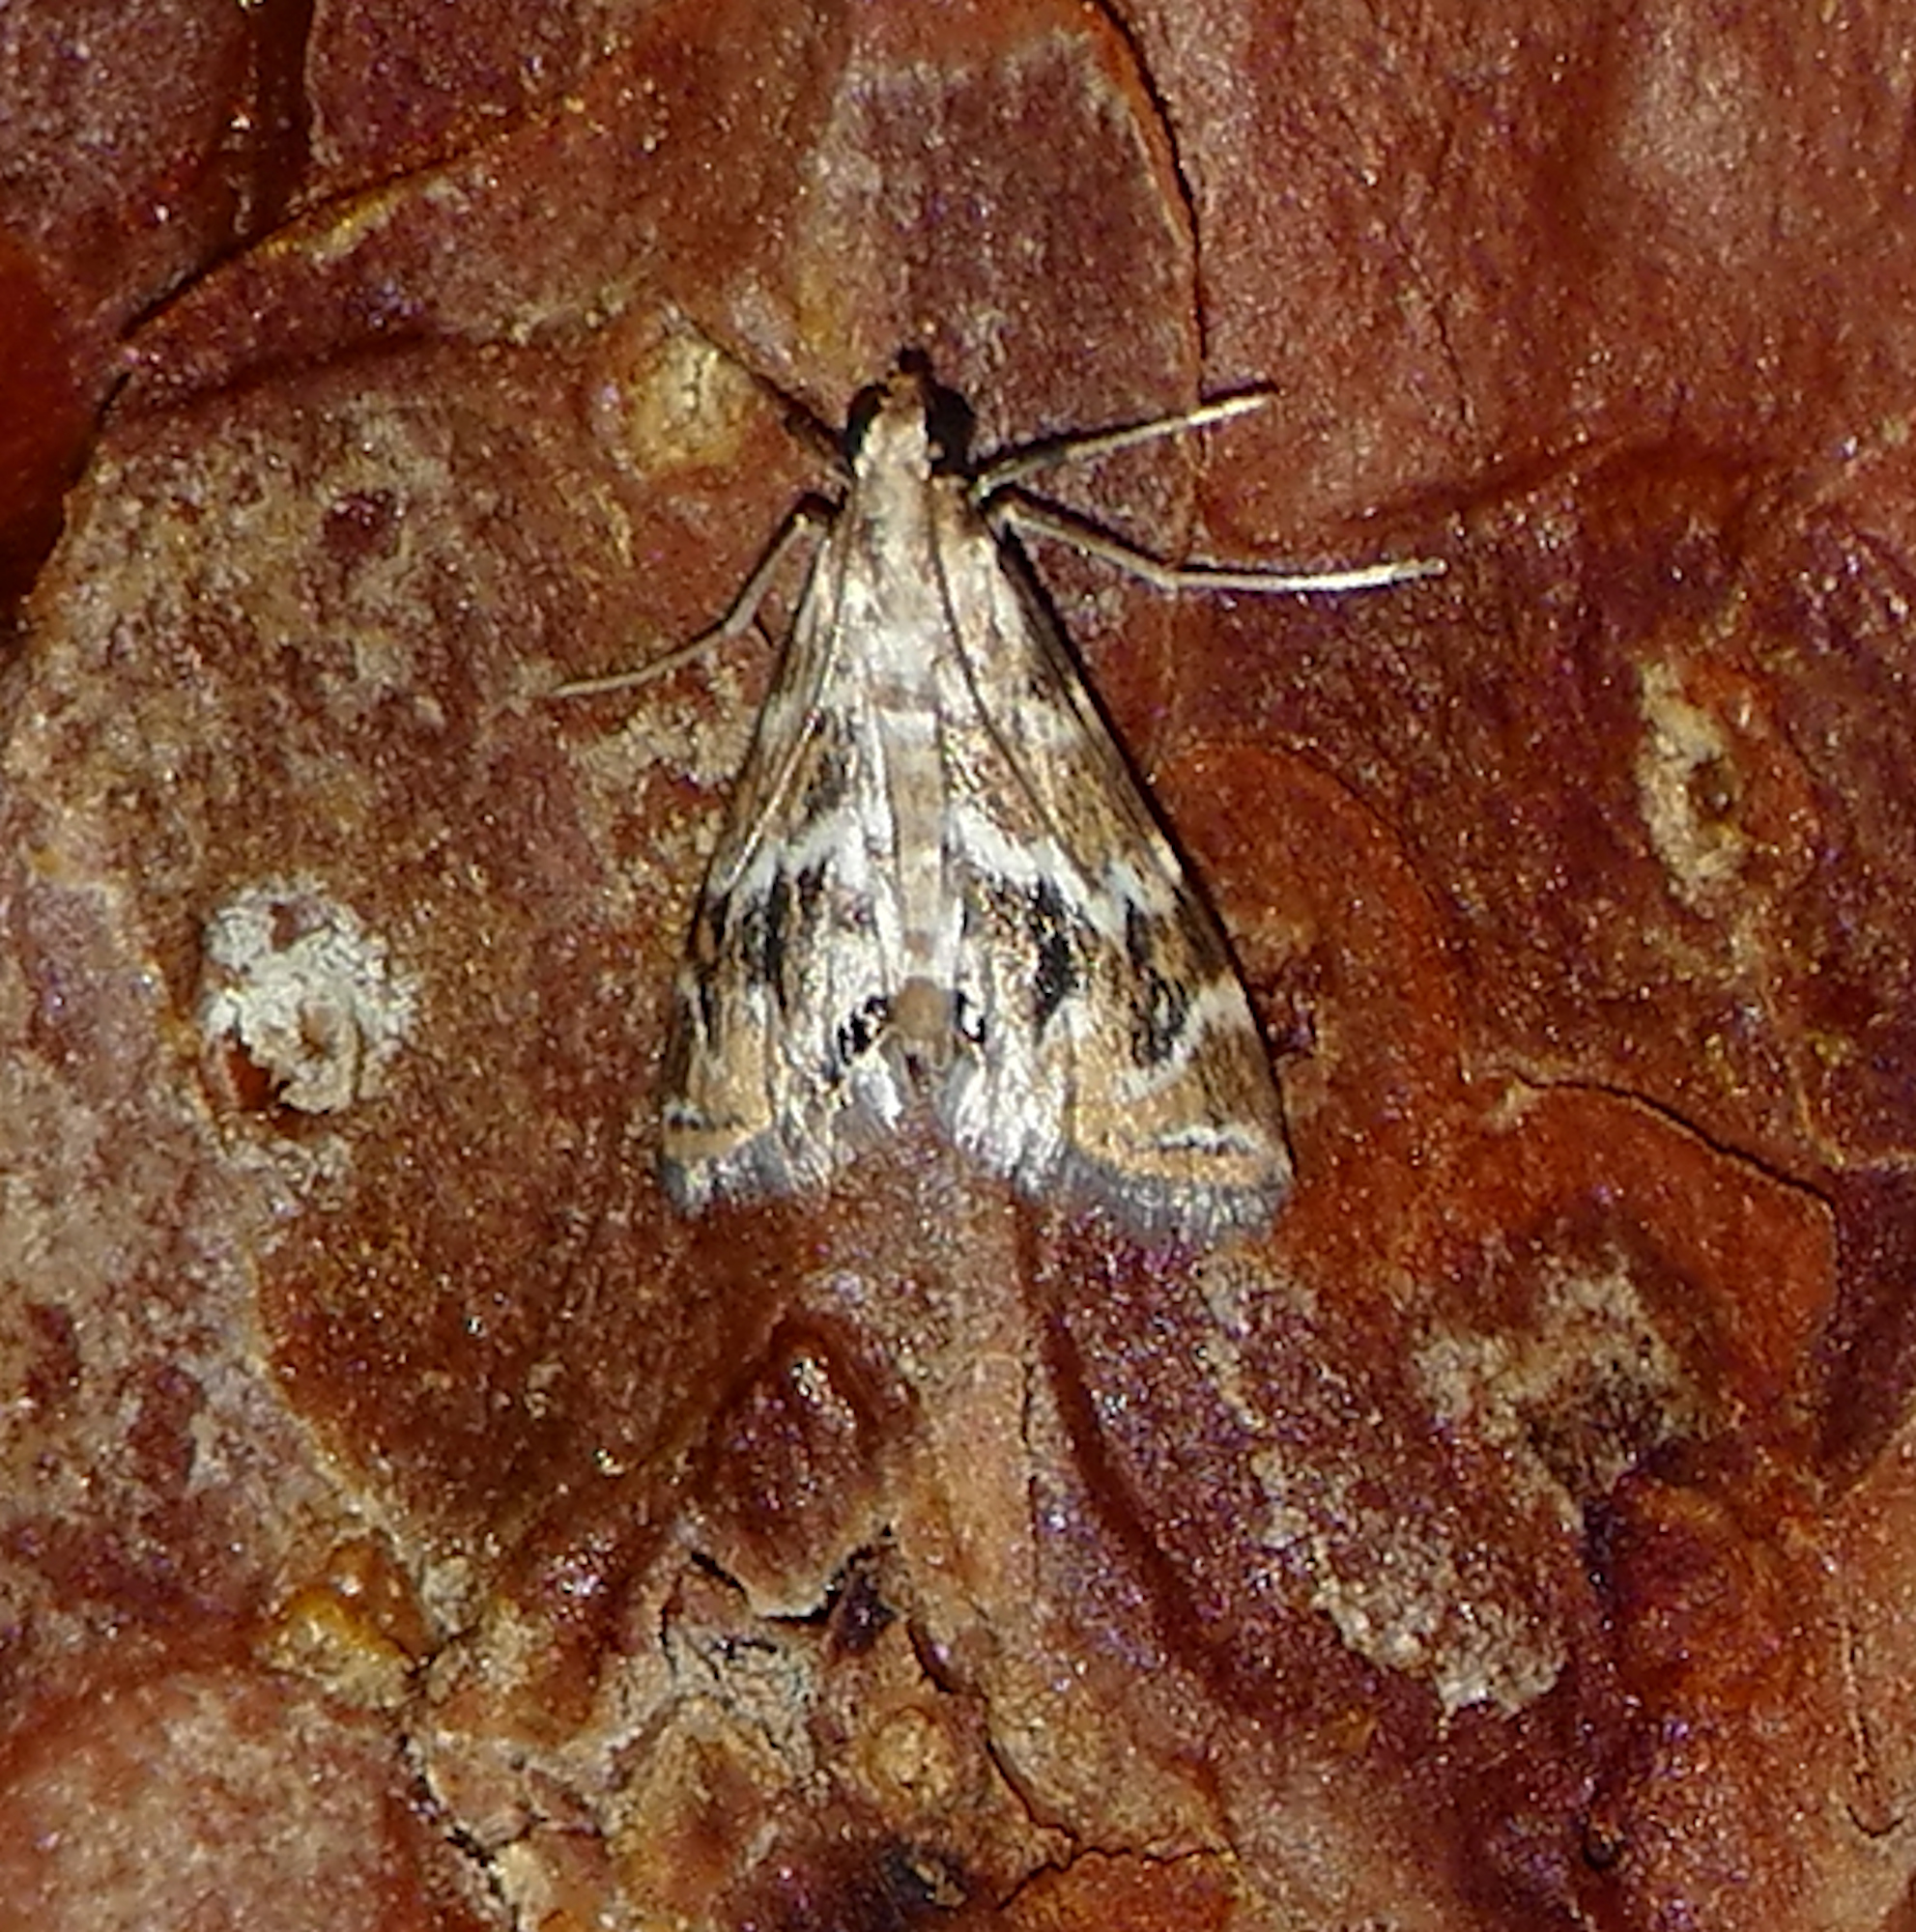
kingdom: Animalia
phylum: Arthropoda
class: Insecta
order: Lepidoptera
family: Crambidae
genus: Petrophila
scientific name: Petrophila avernalis
